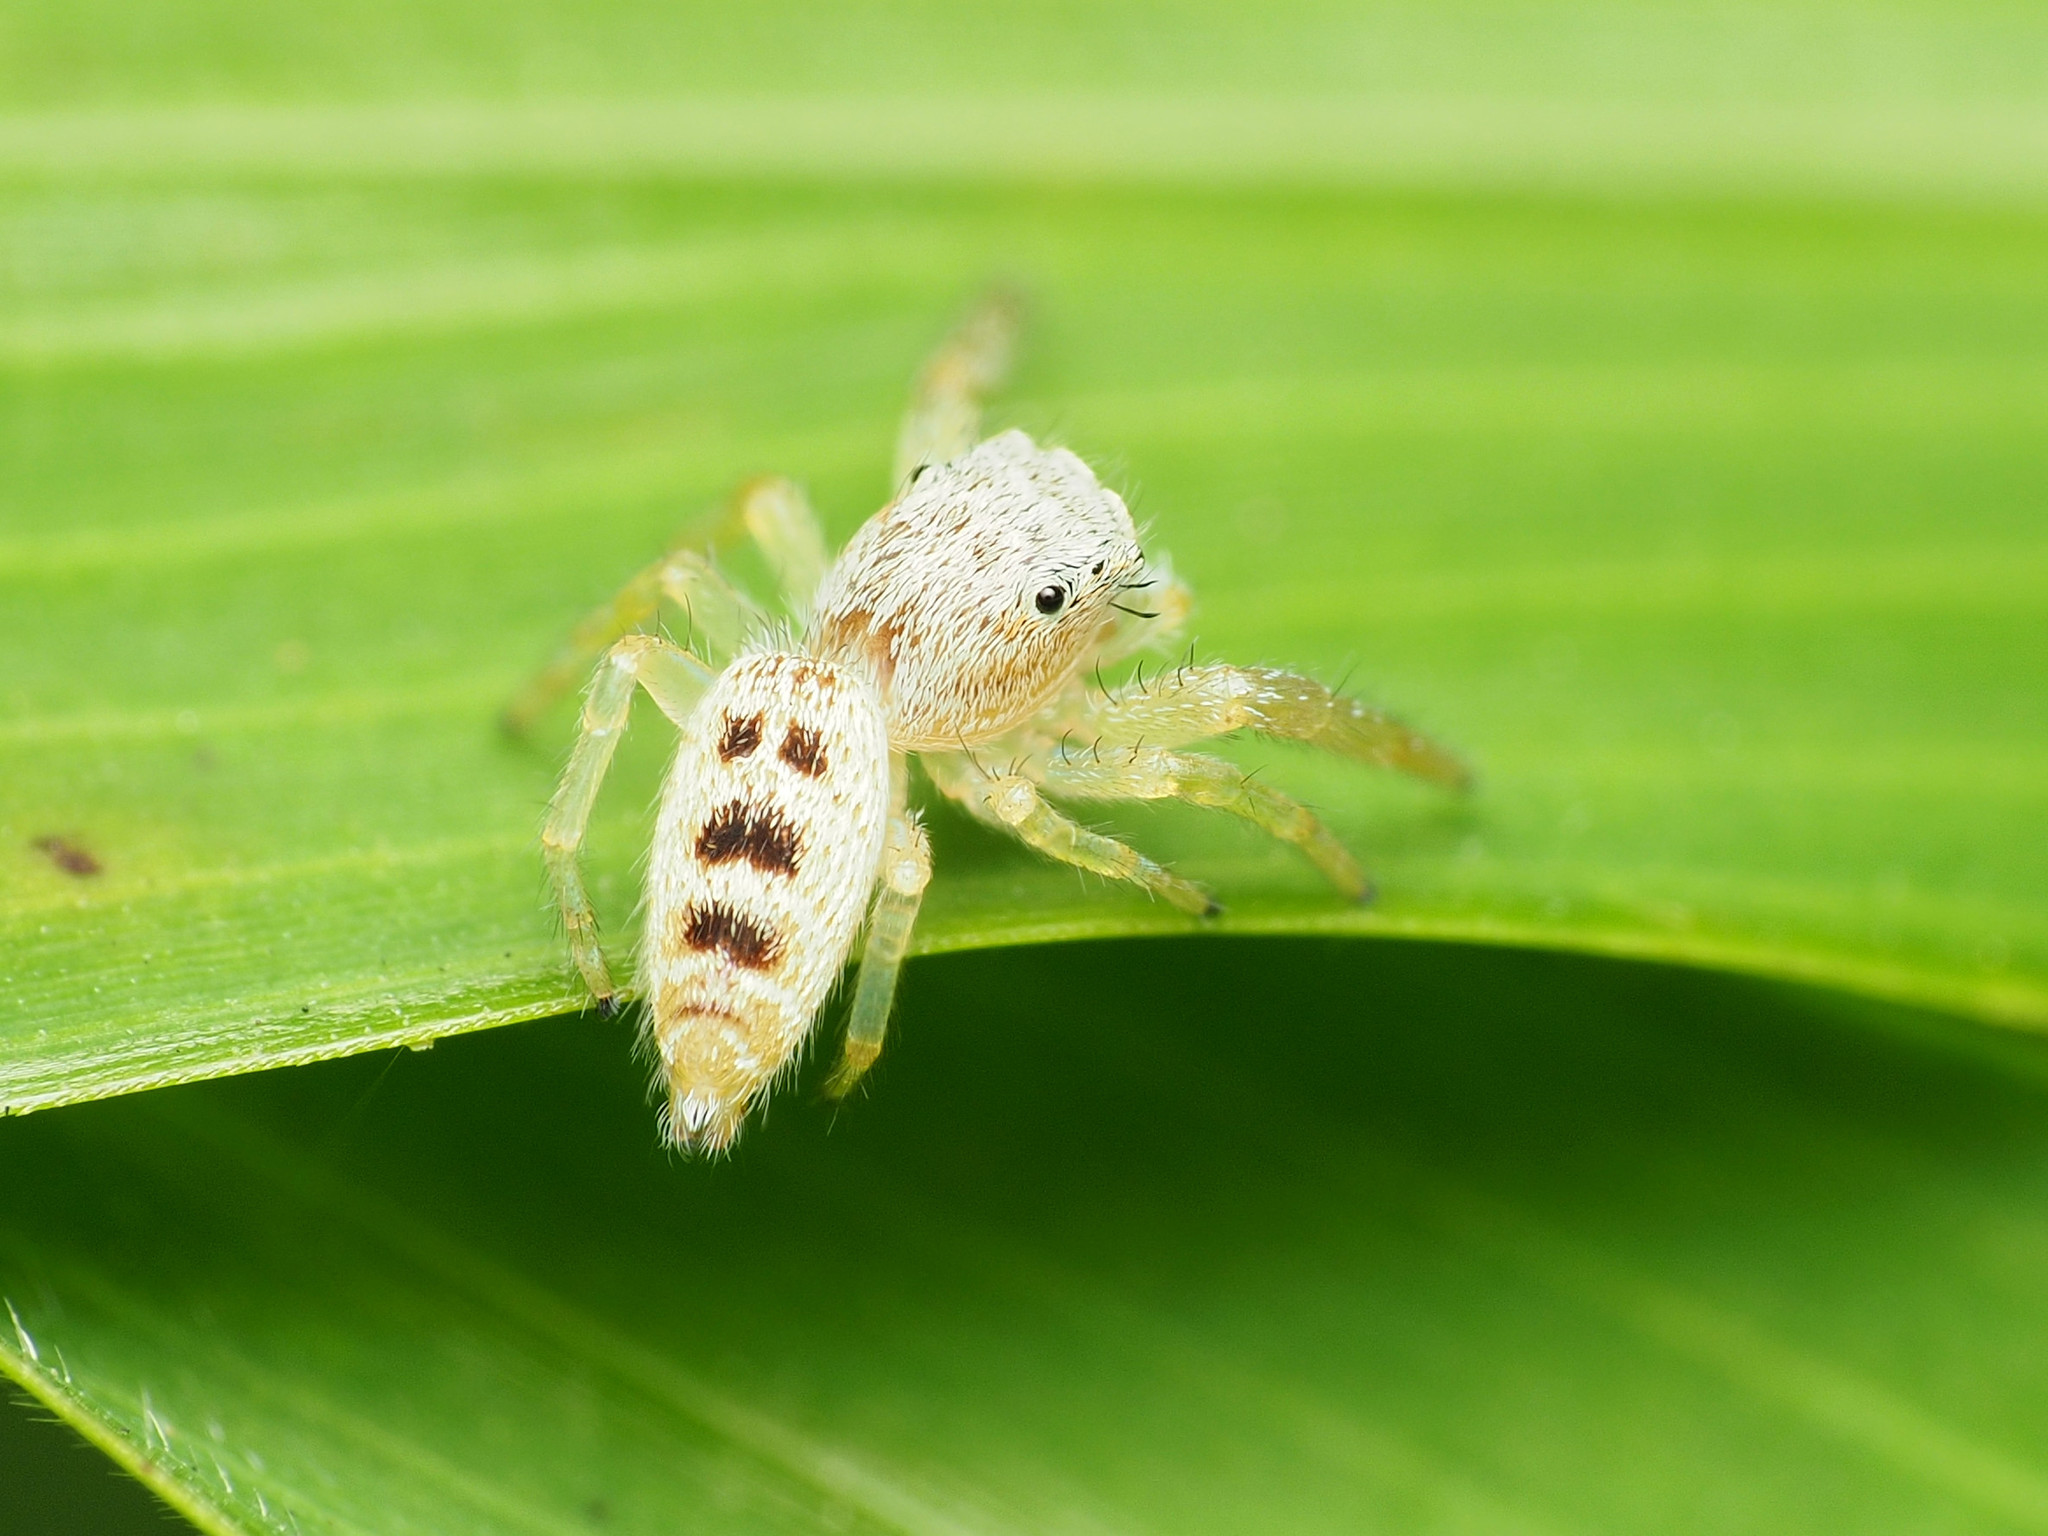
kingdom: Animalia
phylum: Arthropoda
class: Arachnida
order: Araneae
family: Salticidae
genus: Hentzia
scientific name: Hentzia mitrata
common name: White-jawed jumping spider
